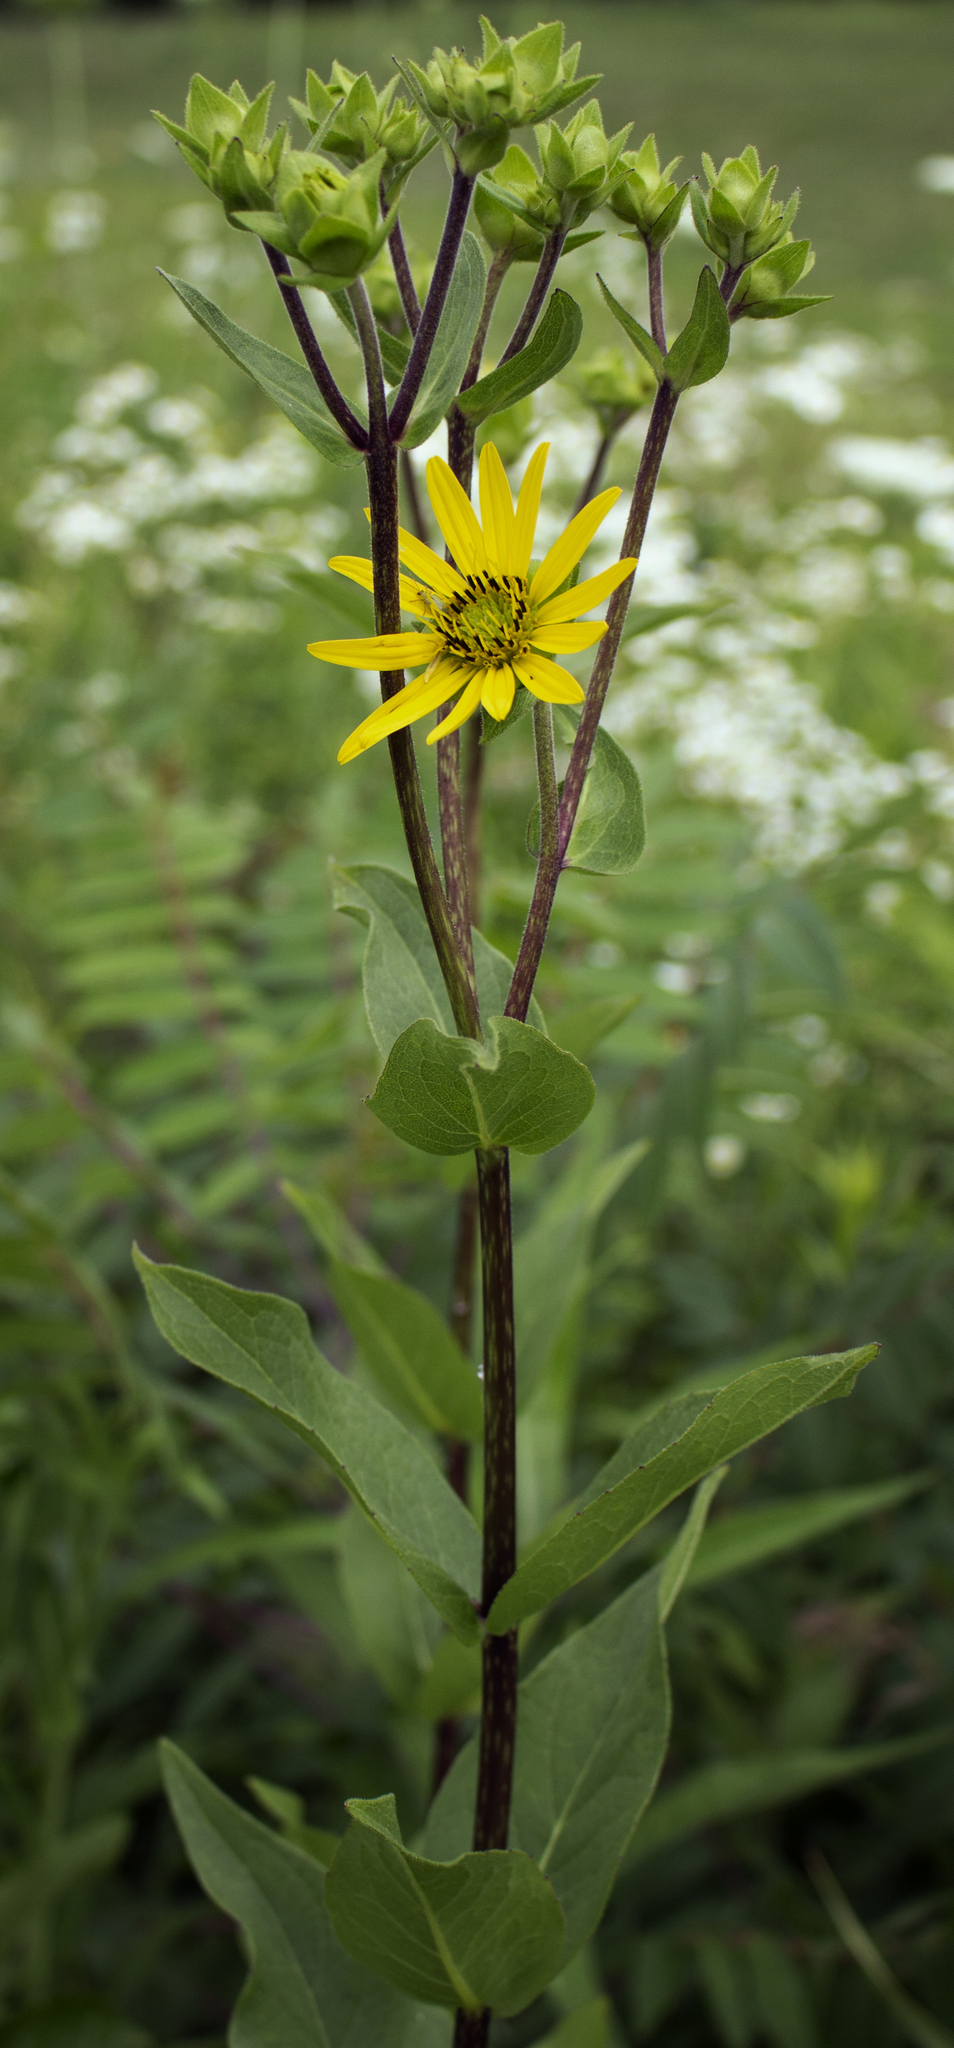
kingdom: Plantae
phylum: Tracheophyta
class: Magnoliopsida
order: Asterales
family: Asteraceae
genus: Silphium
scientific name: Silphium integrifolium
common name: Whole-leaf rosinweed
